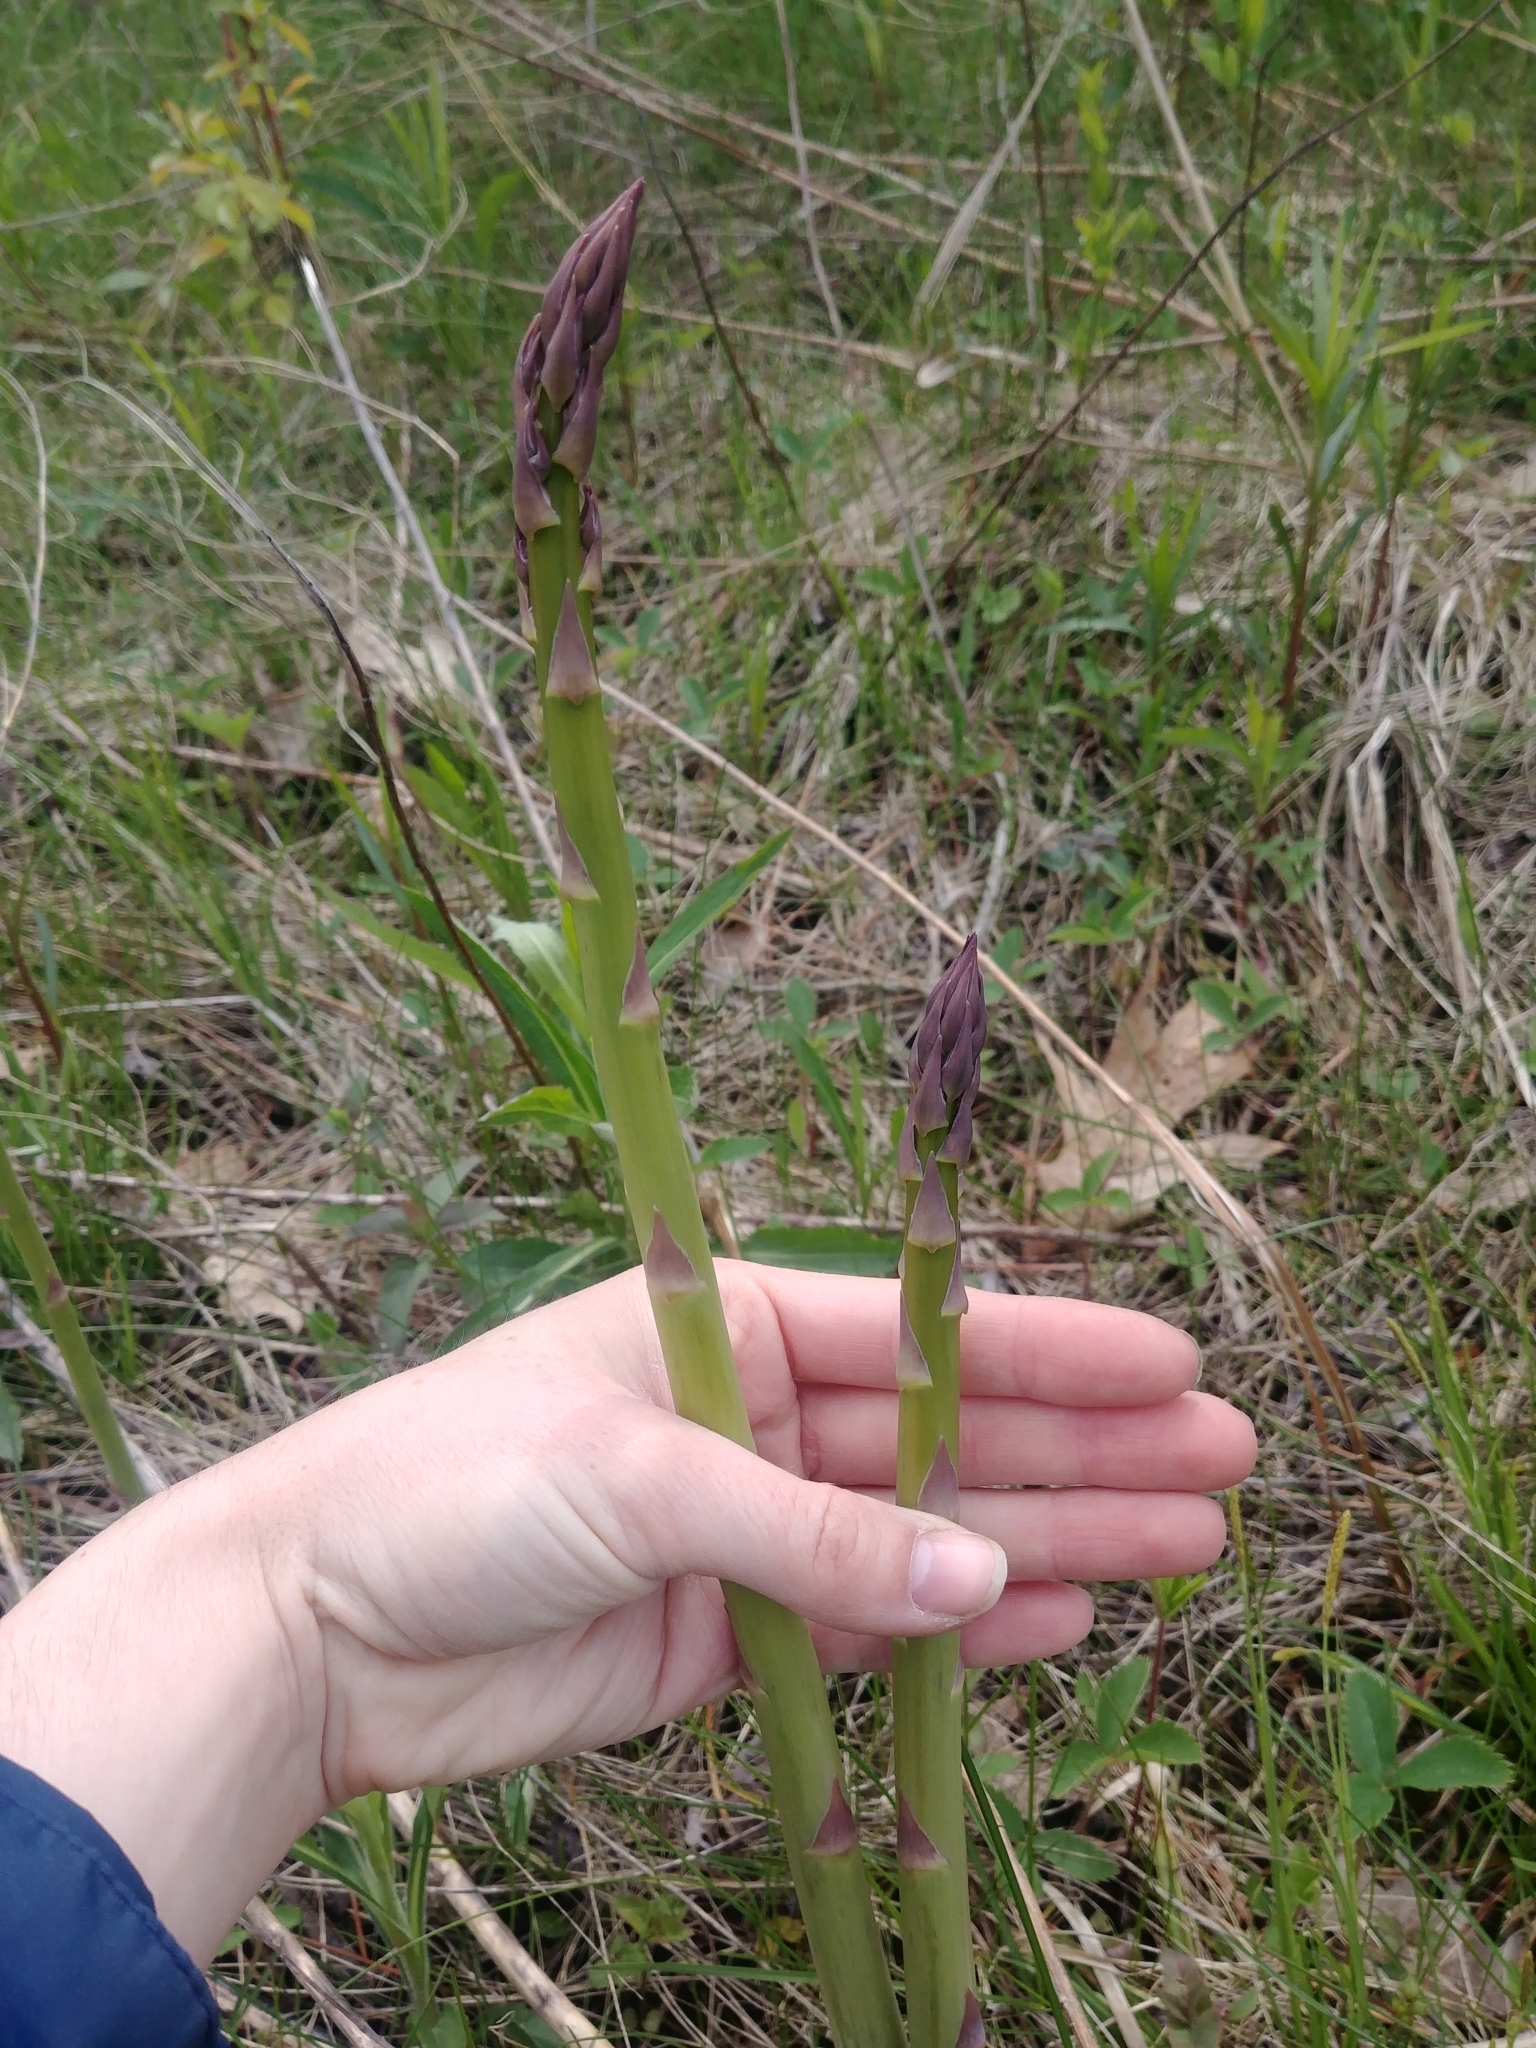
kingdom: Plantae
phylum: Tracheophyta
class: Liliopsida
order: Asparagales
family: Asparagaceae
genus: Asparagus
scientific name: Asparagus officinalis
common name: Garden asparagus
